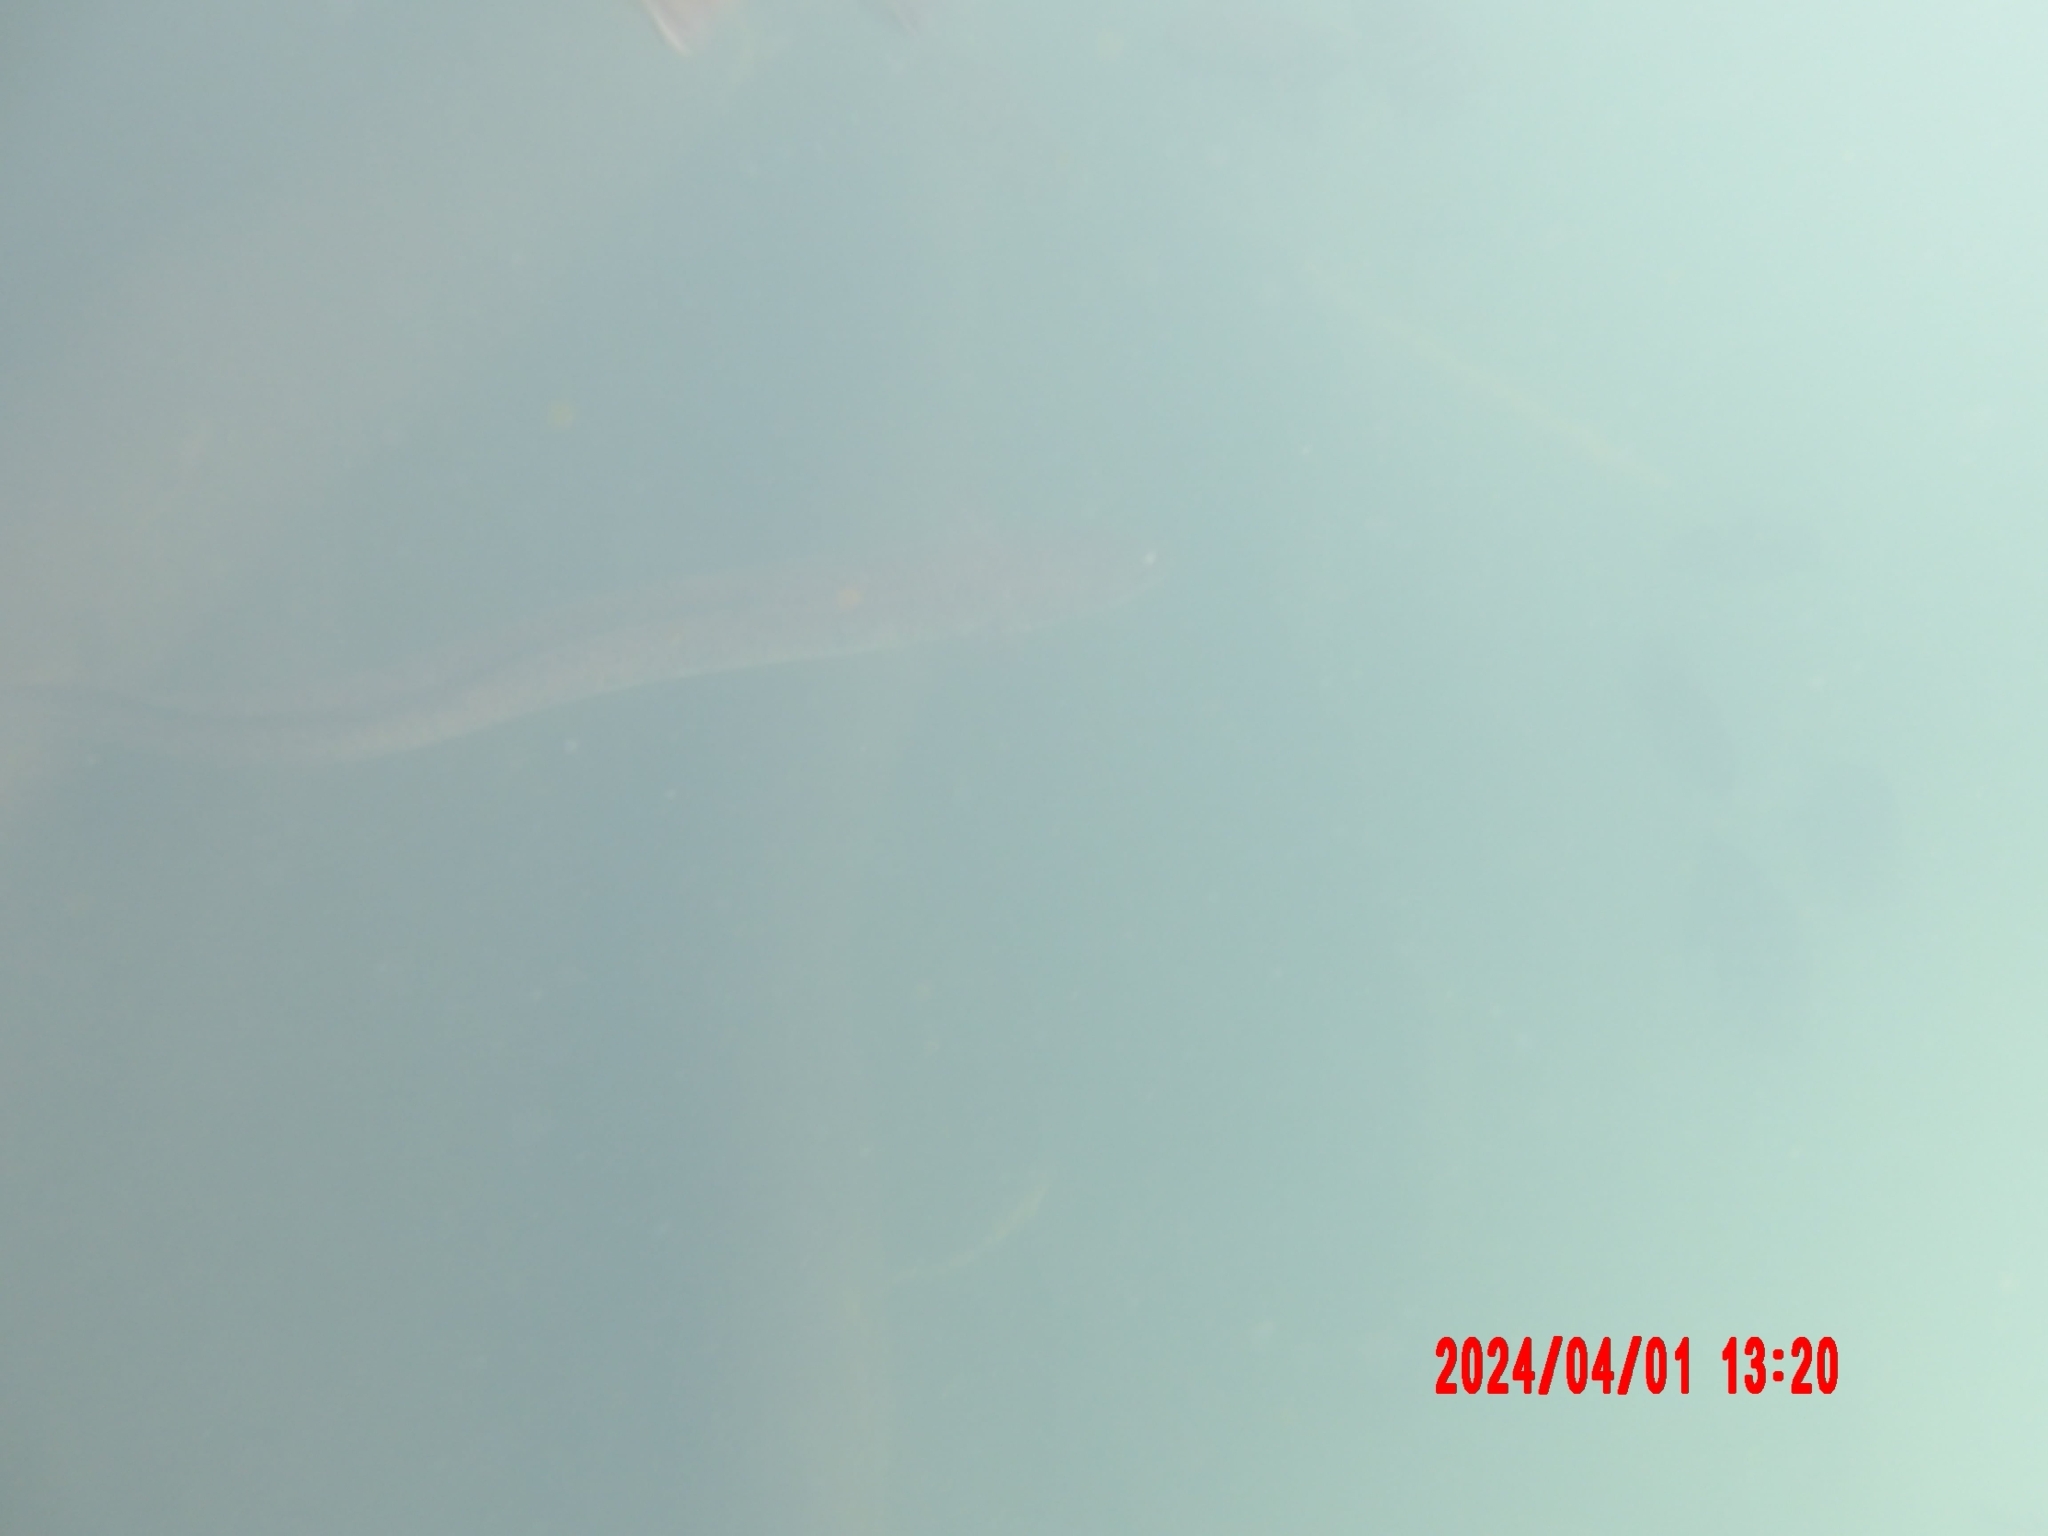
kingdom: Animalia
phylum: Chordata
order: Anguilliformes
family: Anguillidae
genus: Anguilla
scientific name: Anguilla reinhardtii
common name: Longfin eel
